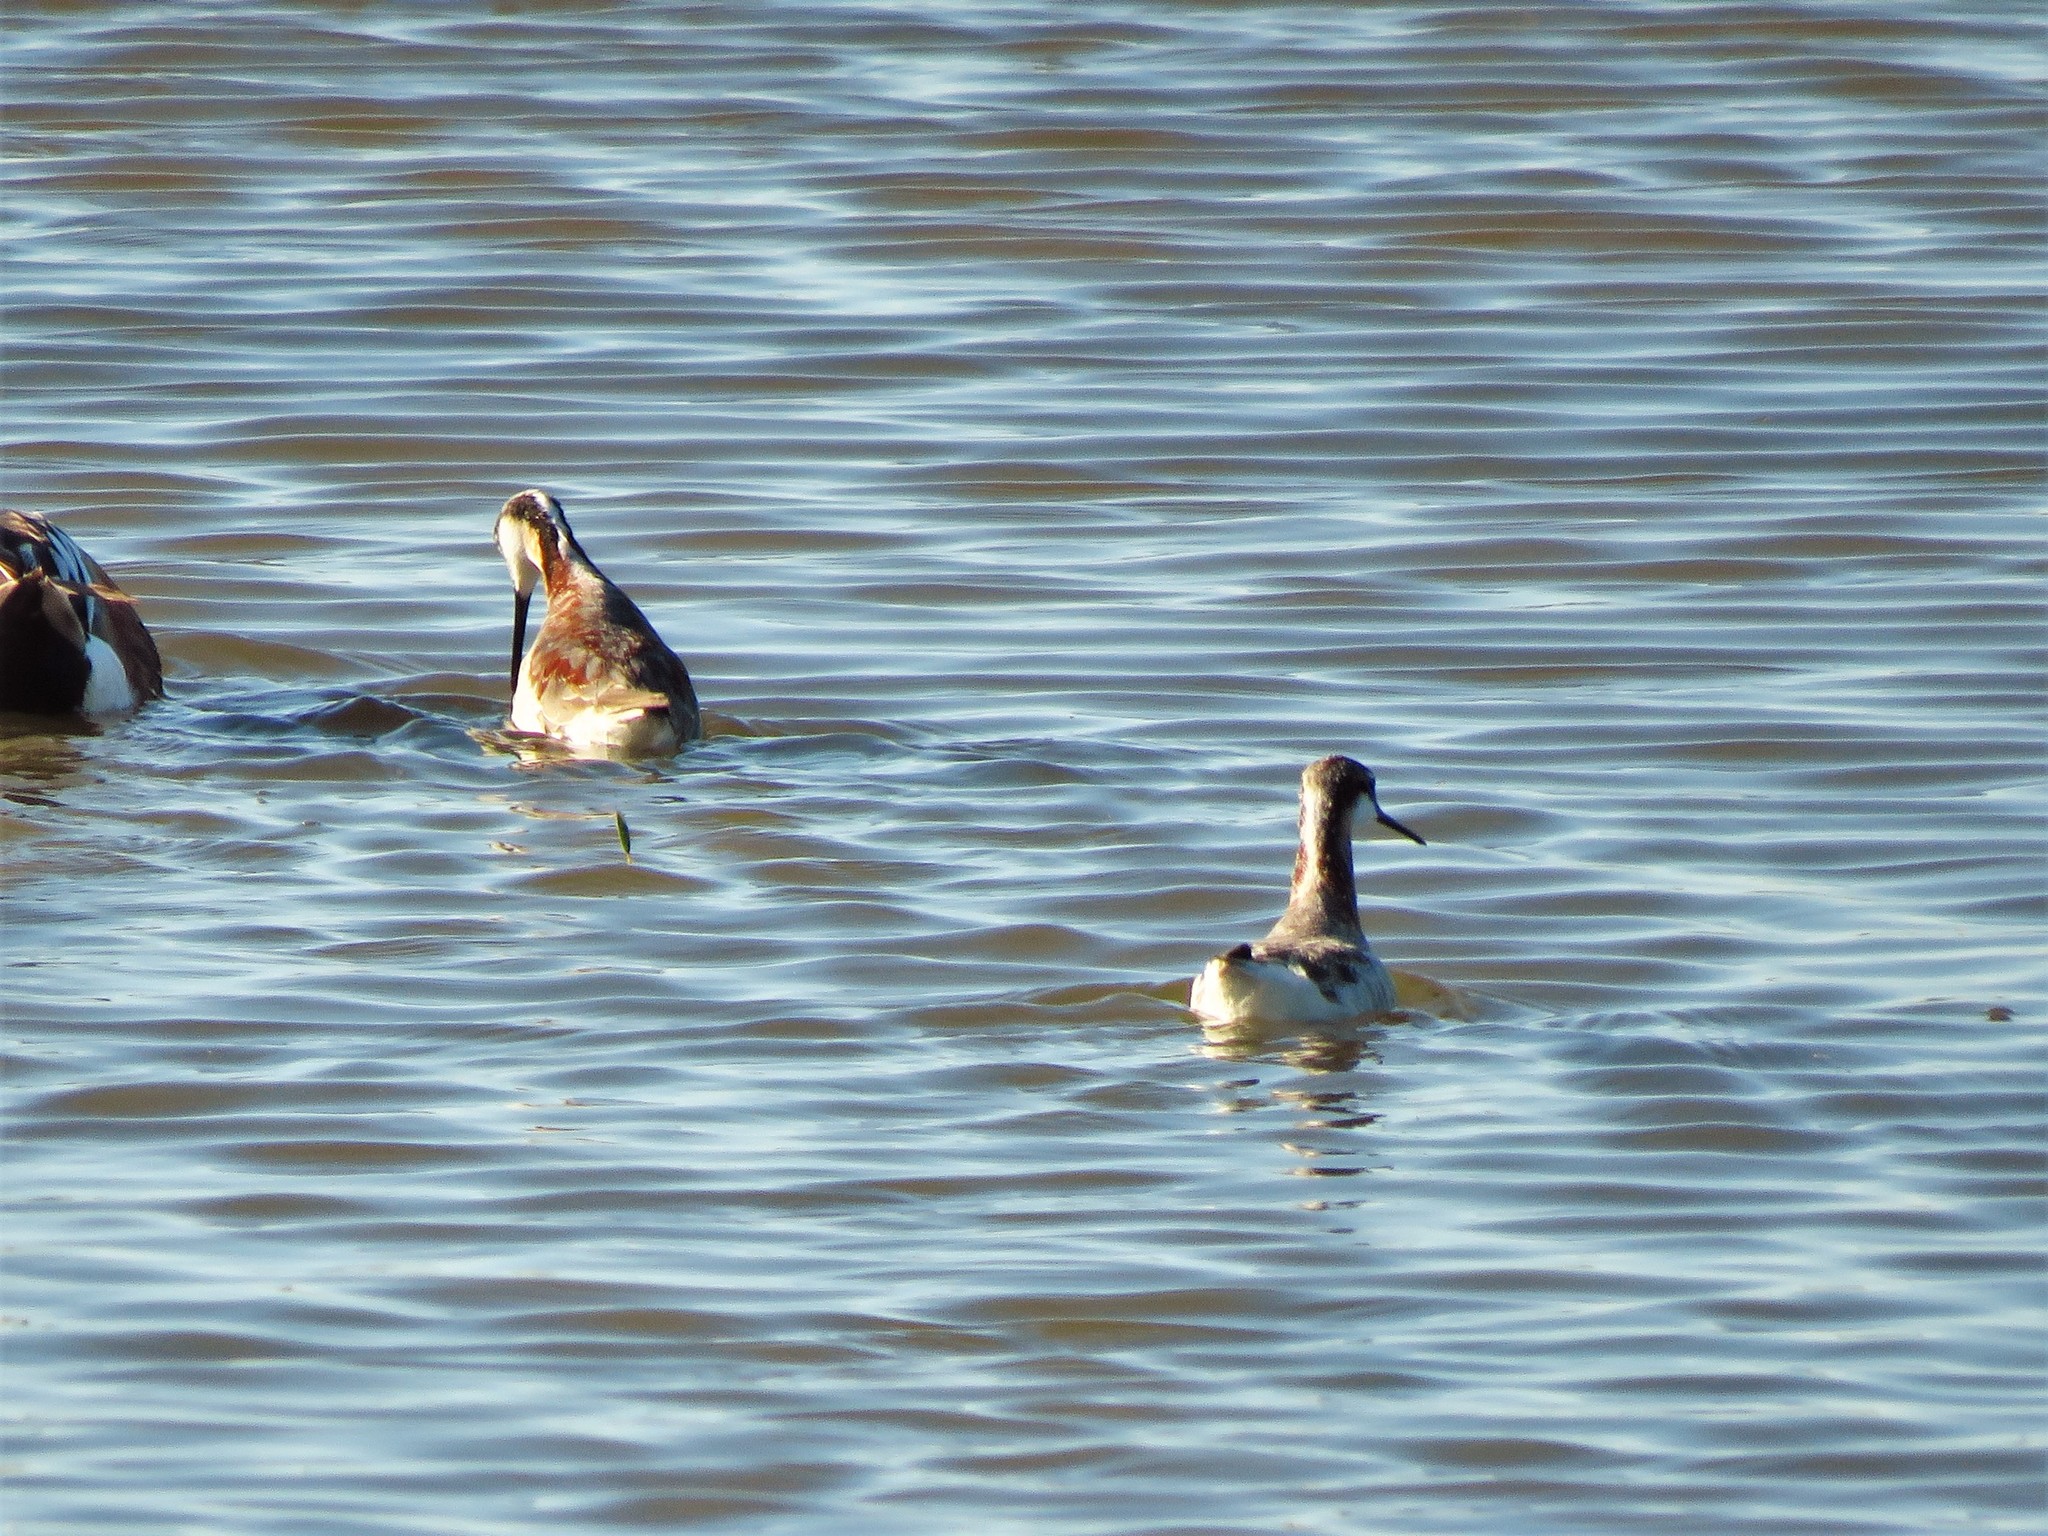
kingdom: Animalia
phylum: Chordata
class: Aves
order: Charadriiformes
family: Scolopacidae
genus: Phalaropus
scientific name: Phalaropus tricolor
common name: Wilson's phalarope
